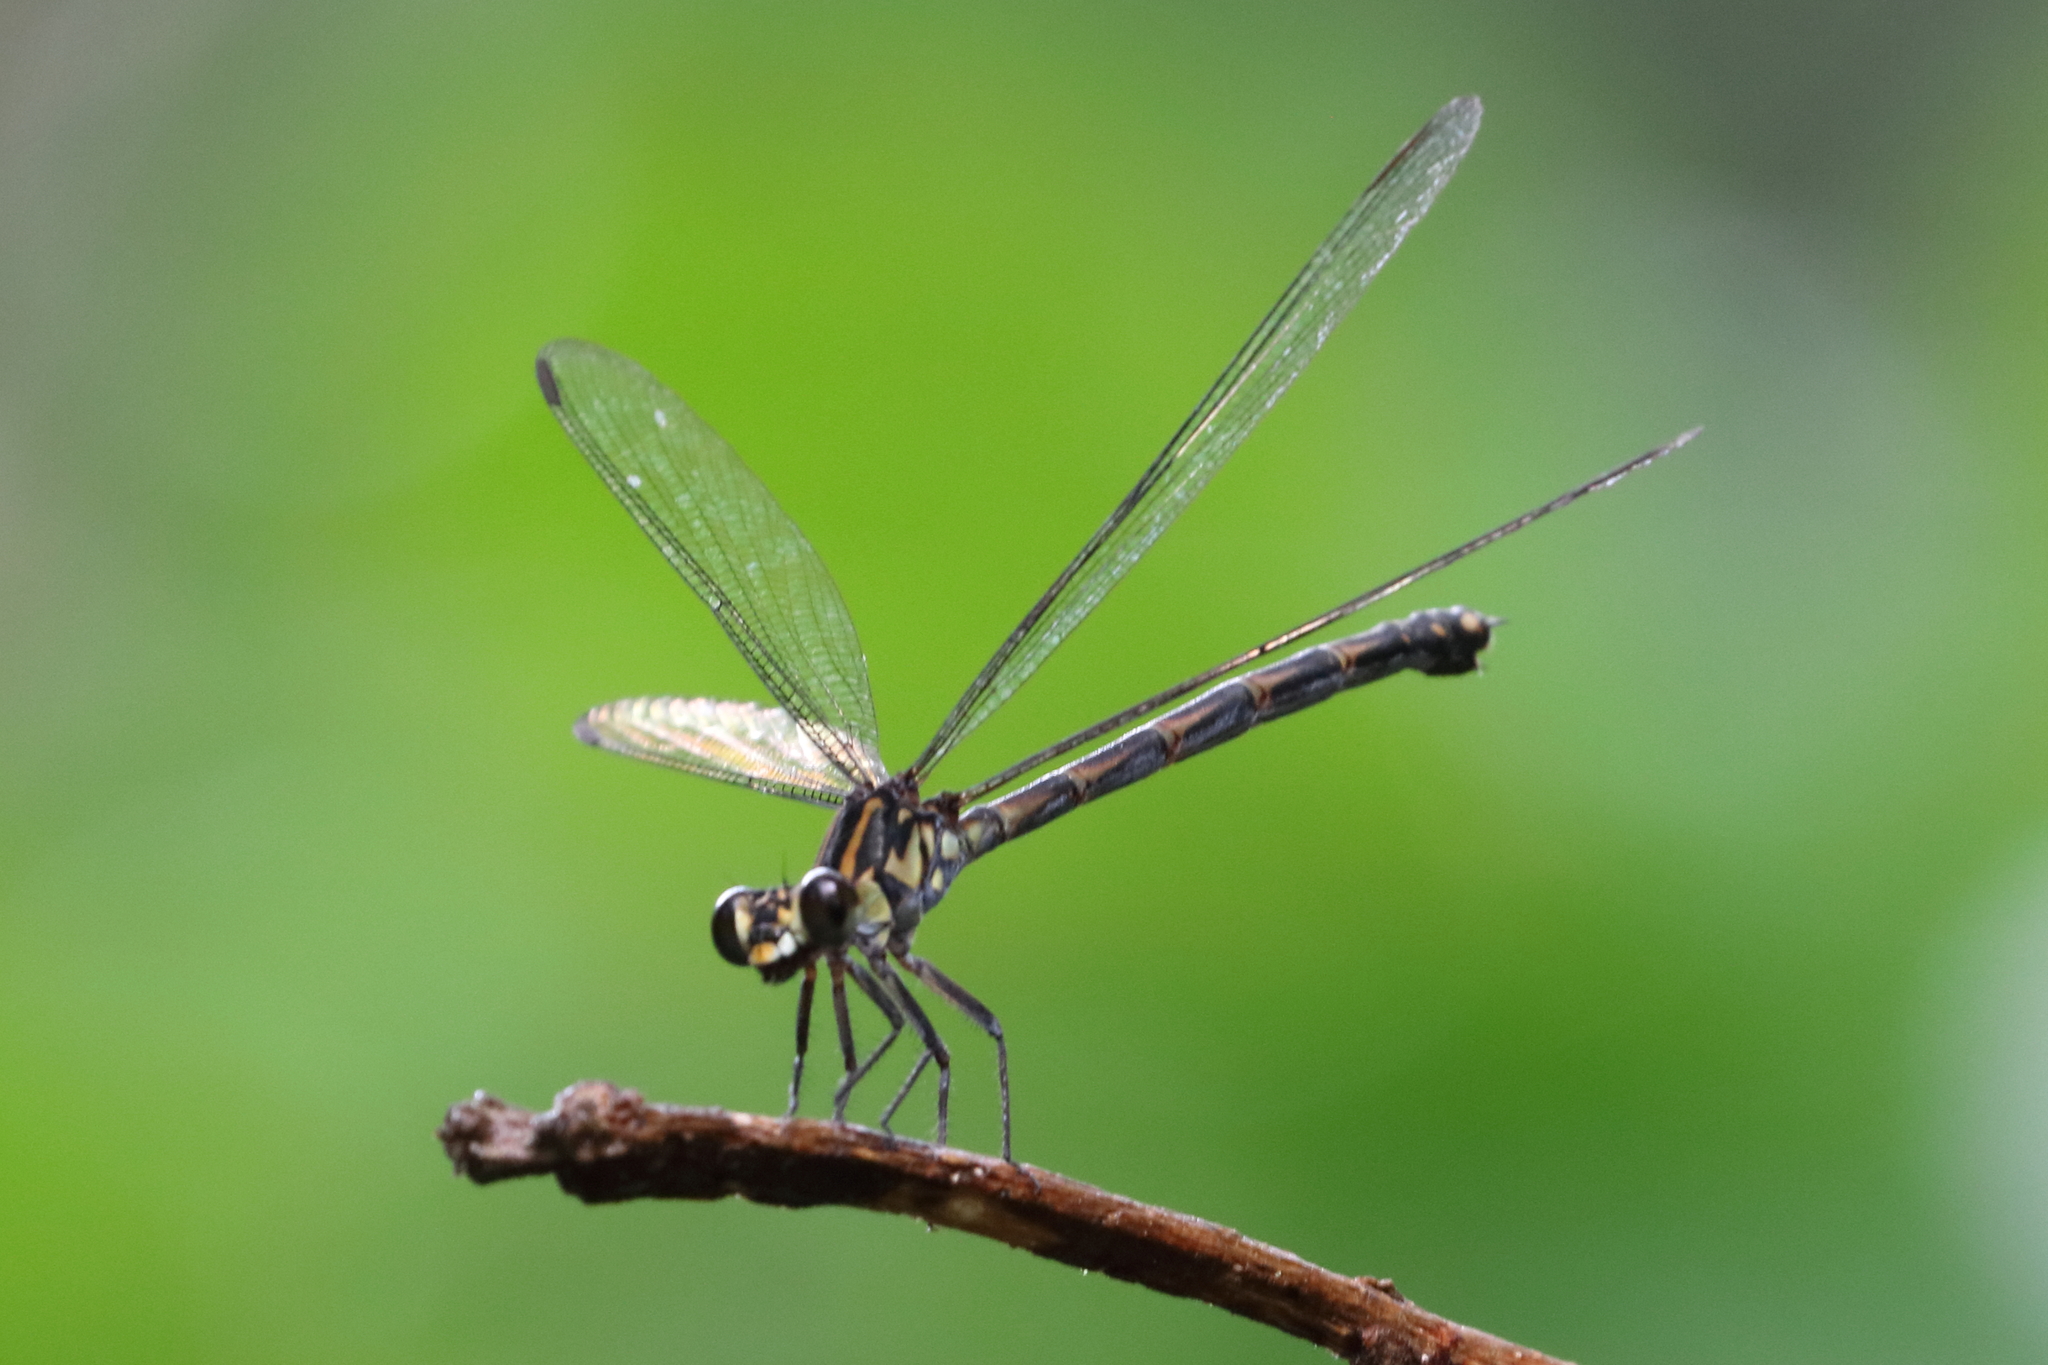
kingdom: Animalia
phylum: Arthropoda
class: Insecta
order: Odonata
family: Euphaeidae
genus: Cyclophaea
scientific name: Cyclophaea cyanifrons
